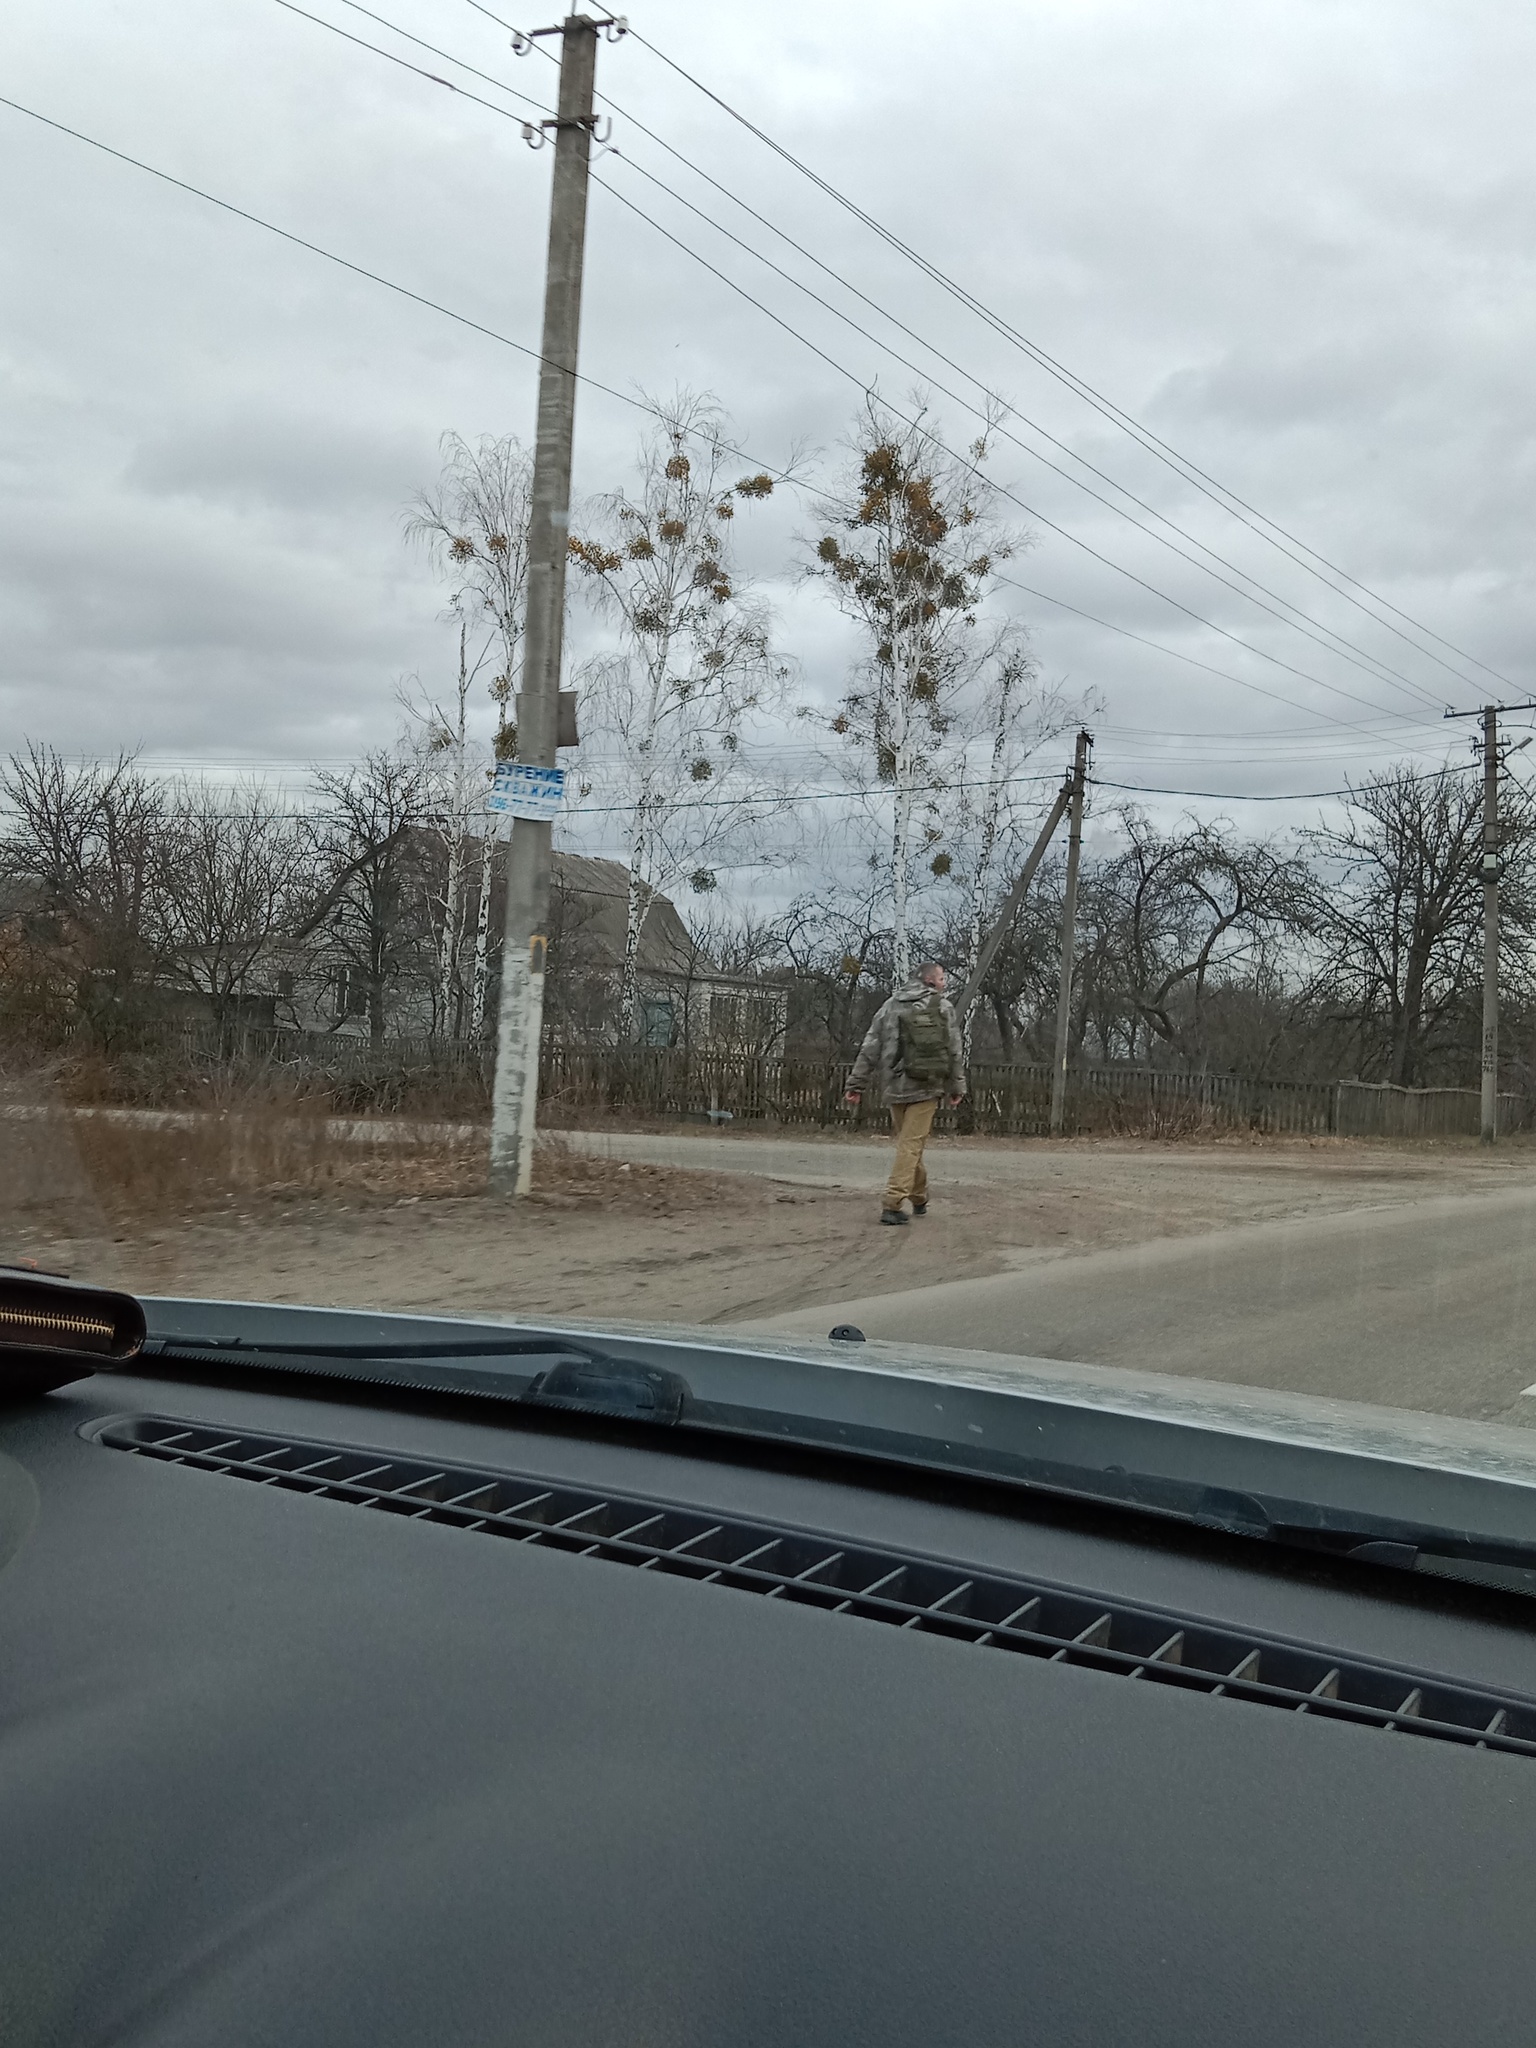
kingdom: Plantae
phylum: Tracheophyta
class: Magnoliopsida
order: Santalales
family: Viscaceae
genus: Viscum
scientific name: Viscum album
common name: Mistletoe
